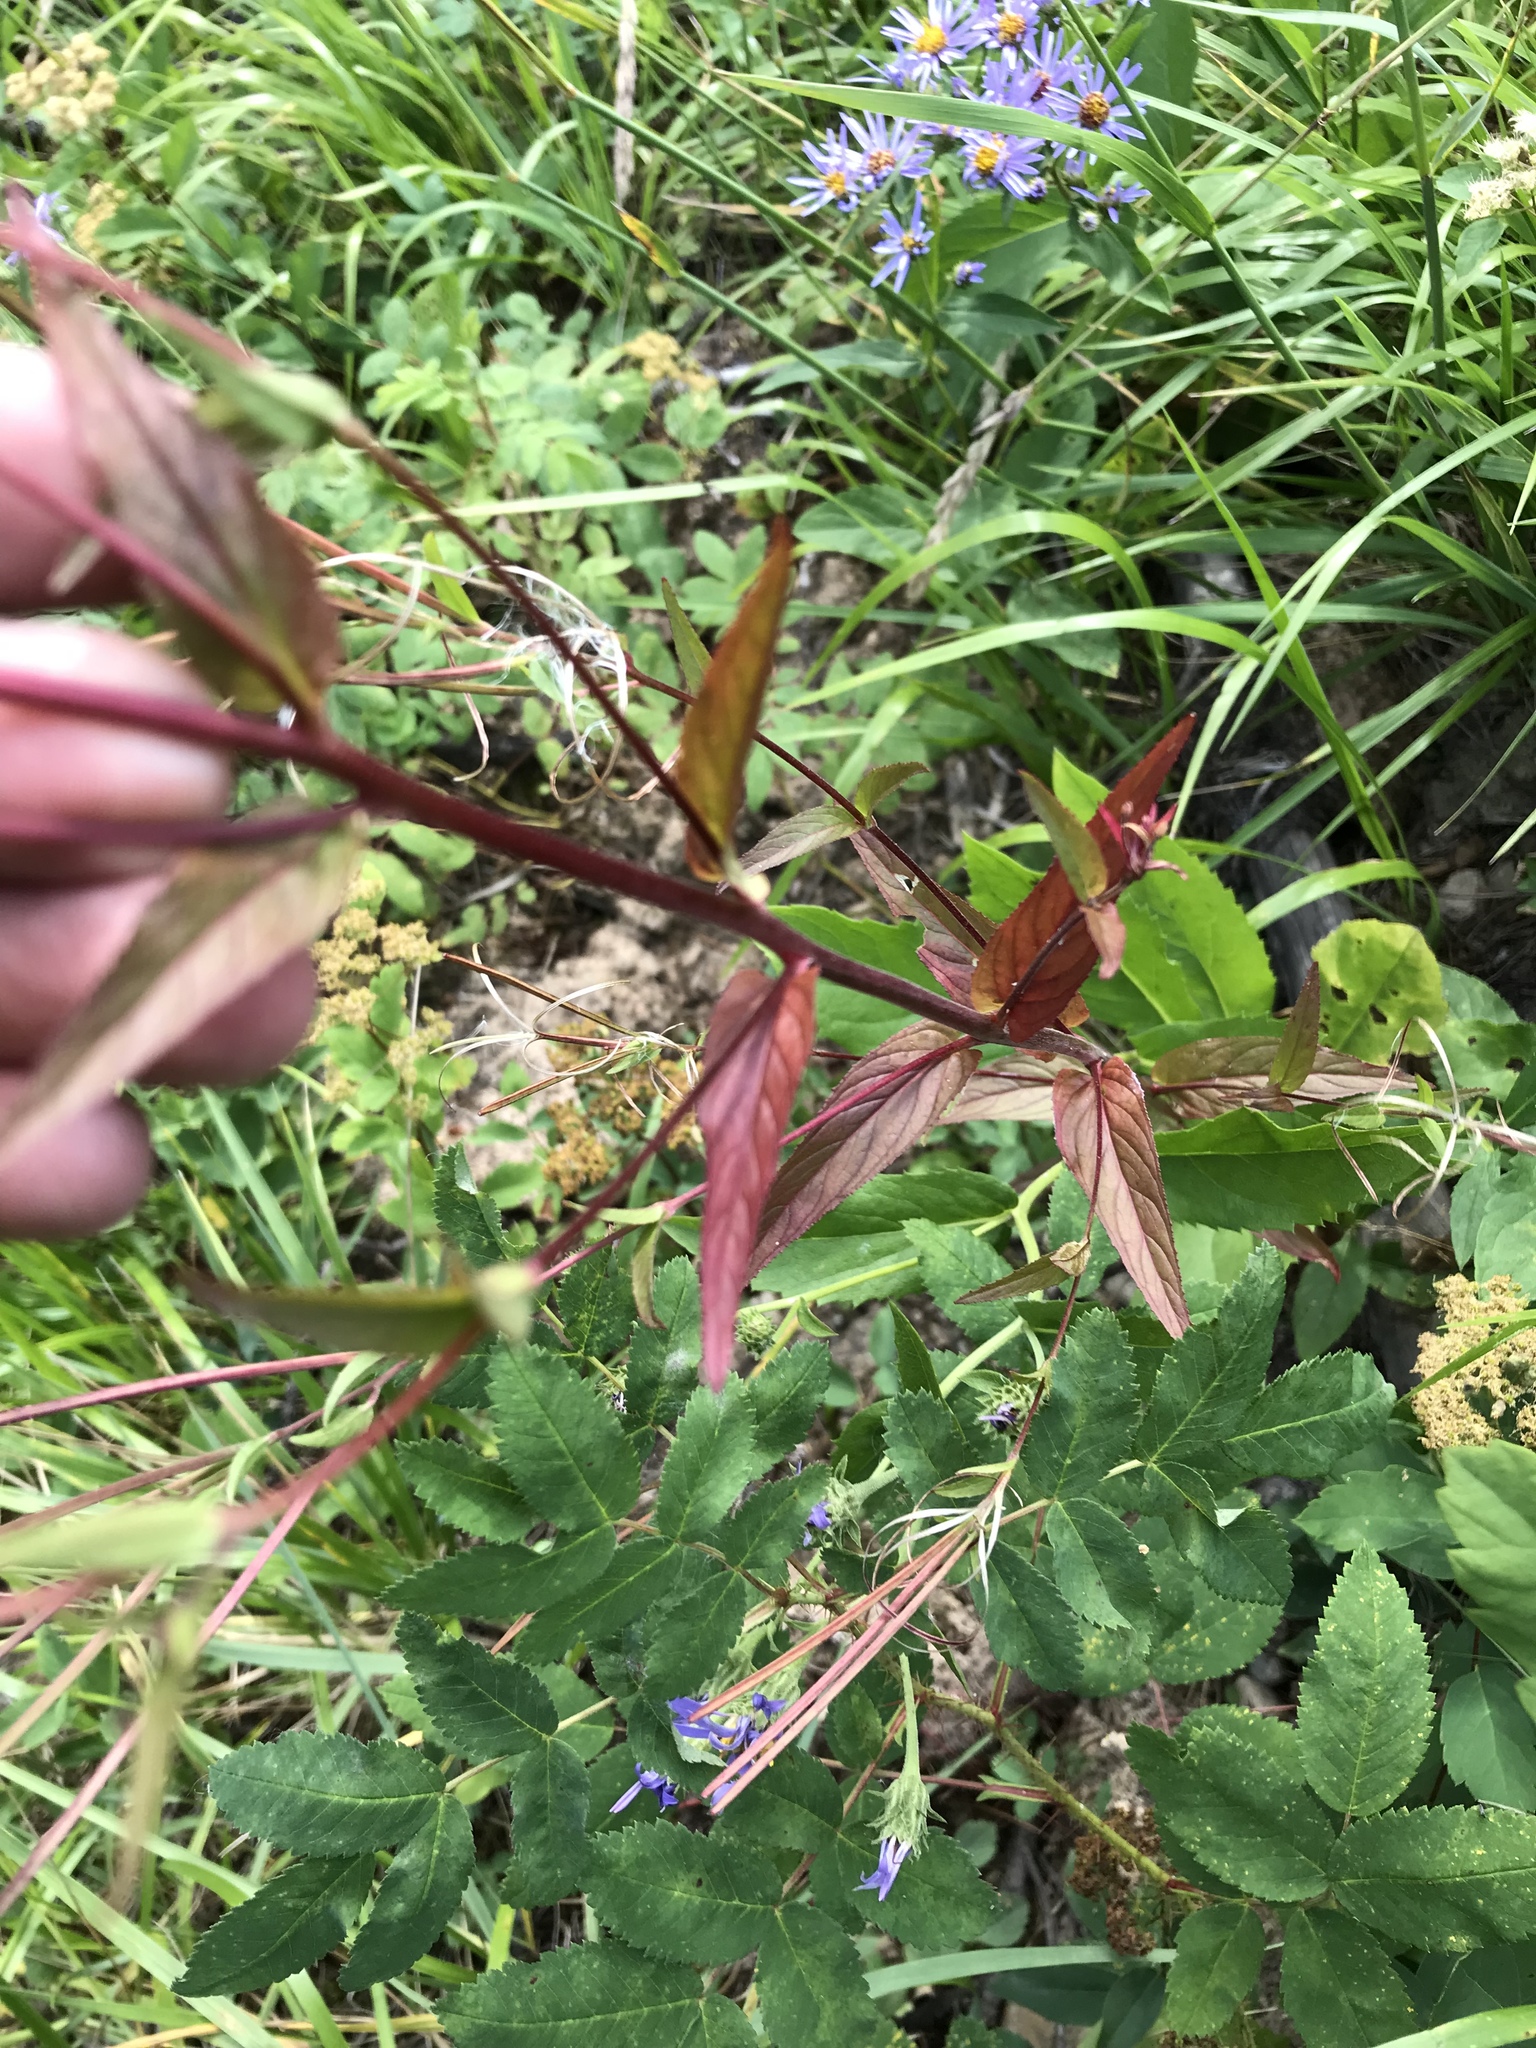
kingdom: Plantae
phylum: Tracheophyta
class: Magnoliopsida
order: Myrtales
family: Onagraceae
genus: Epilobium
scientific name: Epilobium ciliatum
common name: American willowherb
